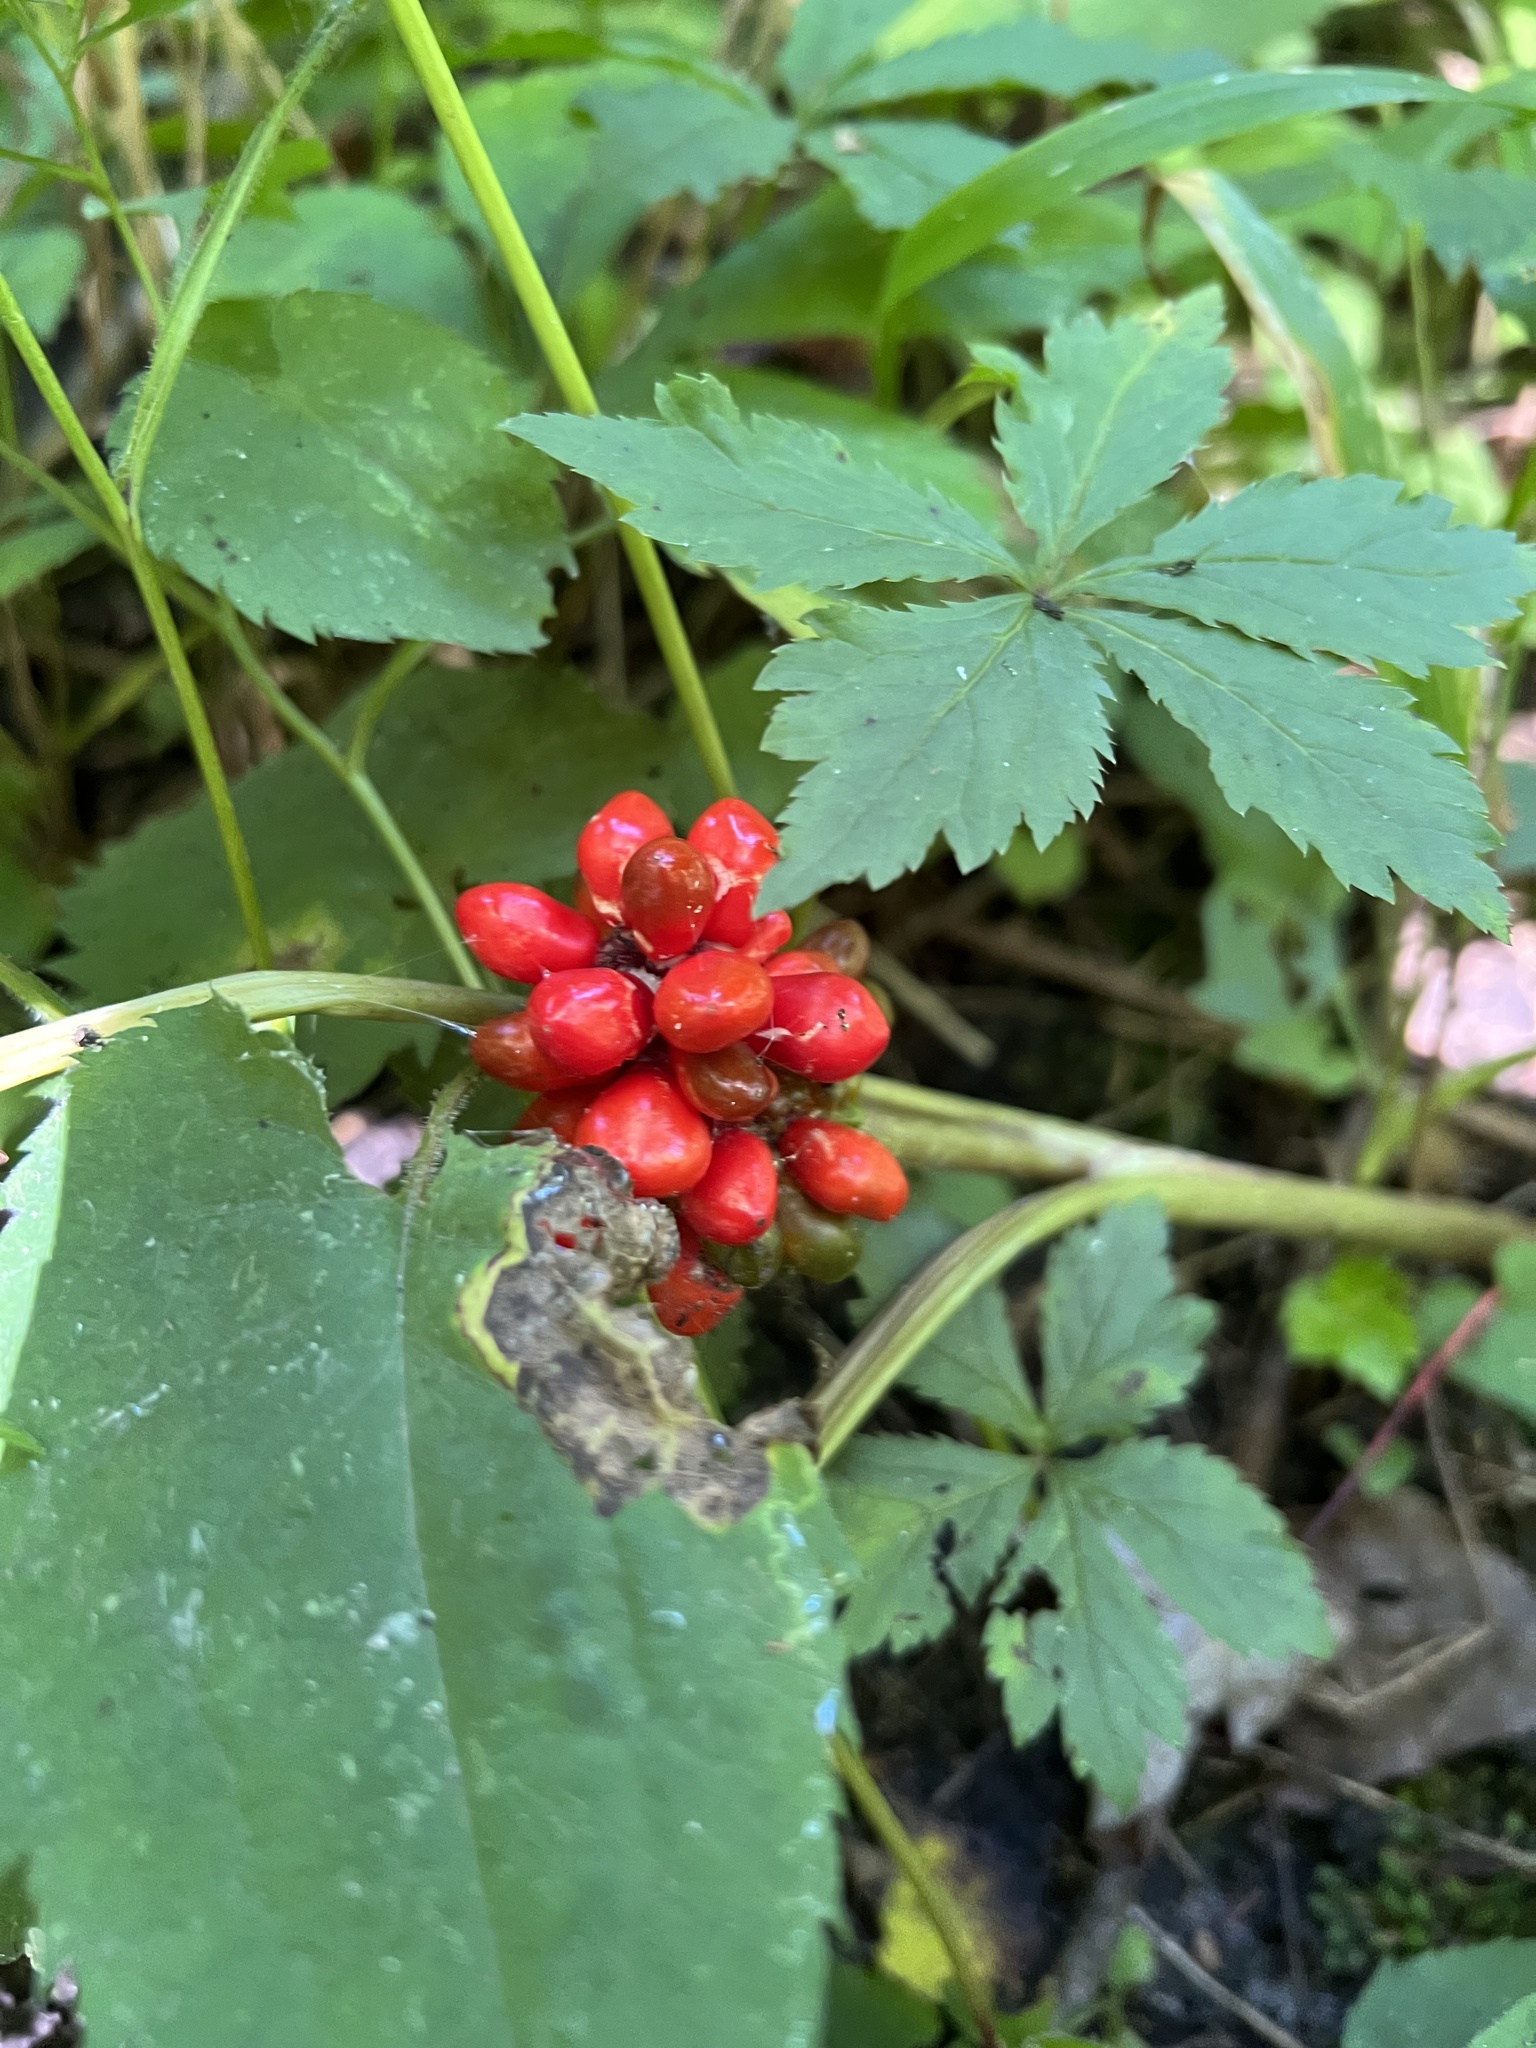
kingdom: Plantae
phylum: Tracheophyta
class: Liliopsida
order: Alismatales
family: Araceae
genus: Arisaema
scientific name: Arisaema triphyllum
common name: Jack-in-the-pulpit
